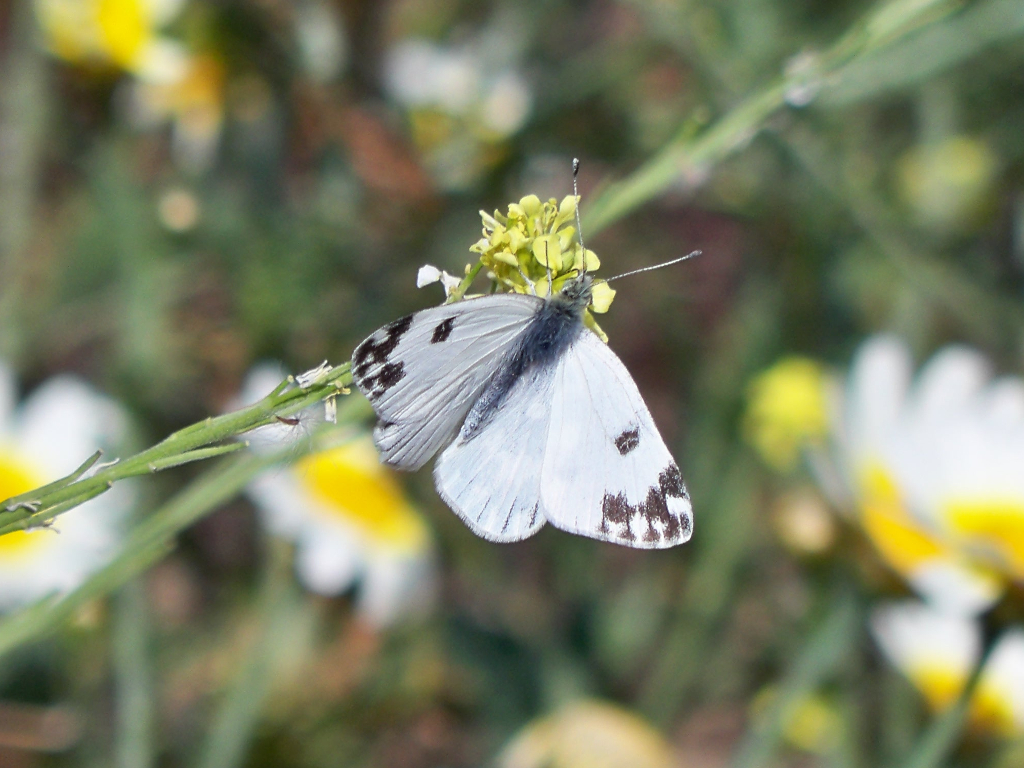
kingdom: Animalia
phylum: Arthropoda
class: Insecta
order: Lepidoptera
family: Pieridae
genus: Pontia
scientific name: Pontia daplidice
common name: Bath white
